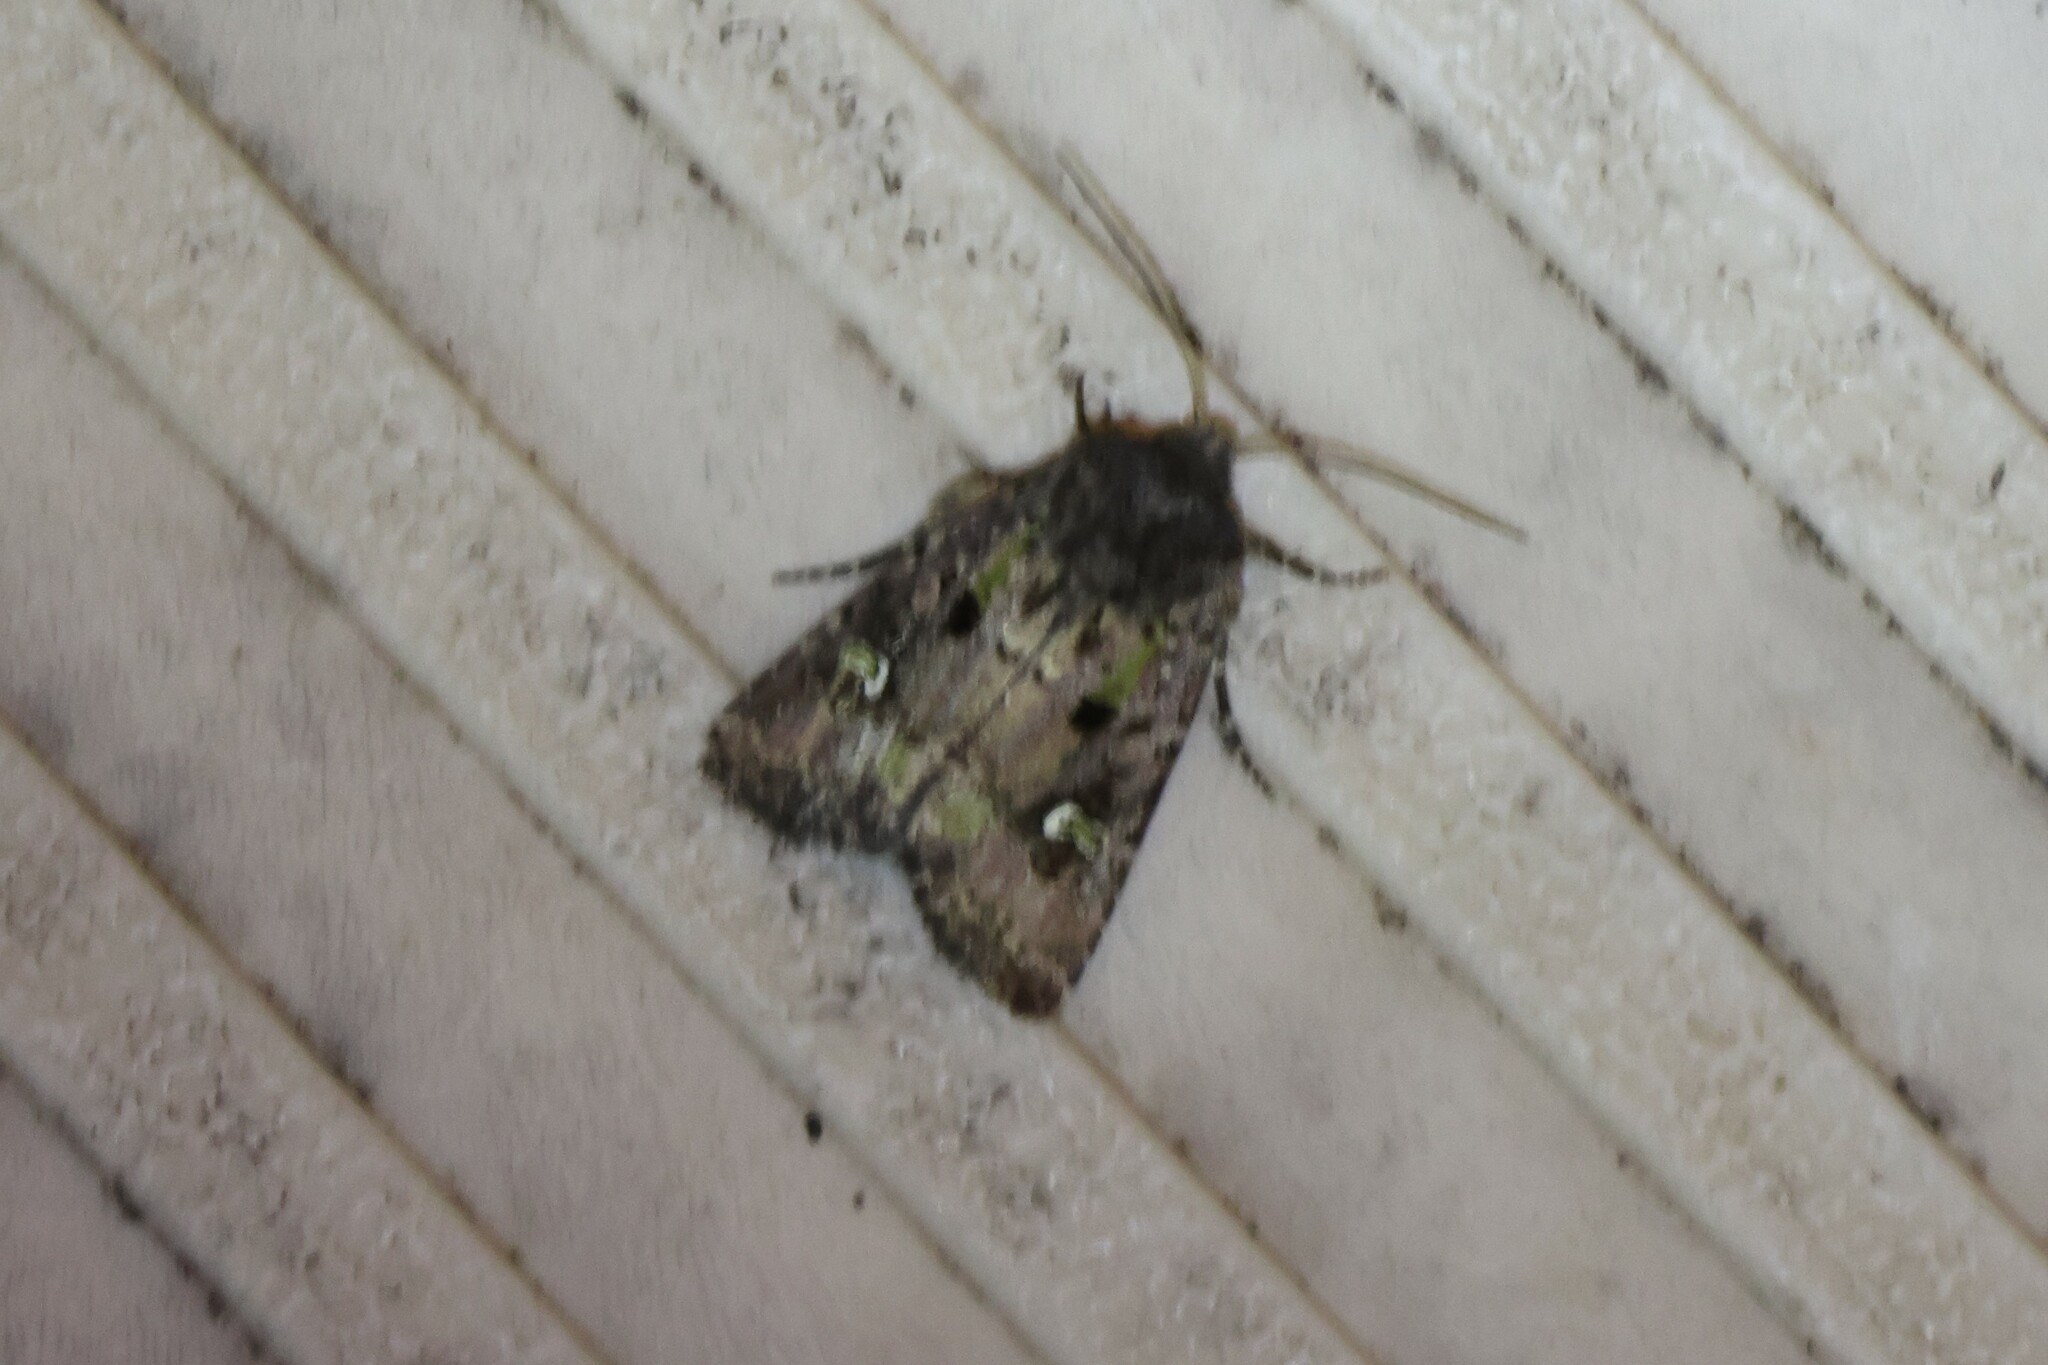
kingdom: Animalia
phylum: Arthropoda
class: Insecta
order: Lepidoptera
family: Noctuidae
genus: Lacinipolia
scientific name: Lacinipolia renigera
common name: Kidney-spotted minor
